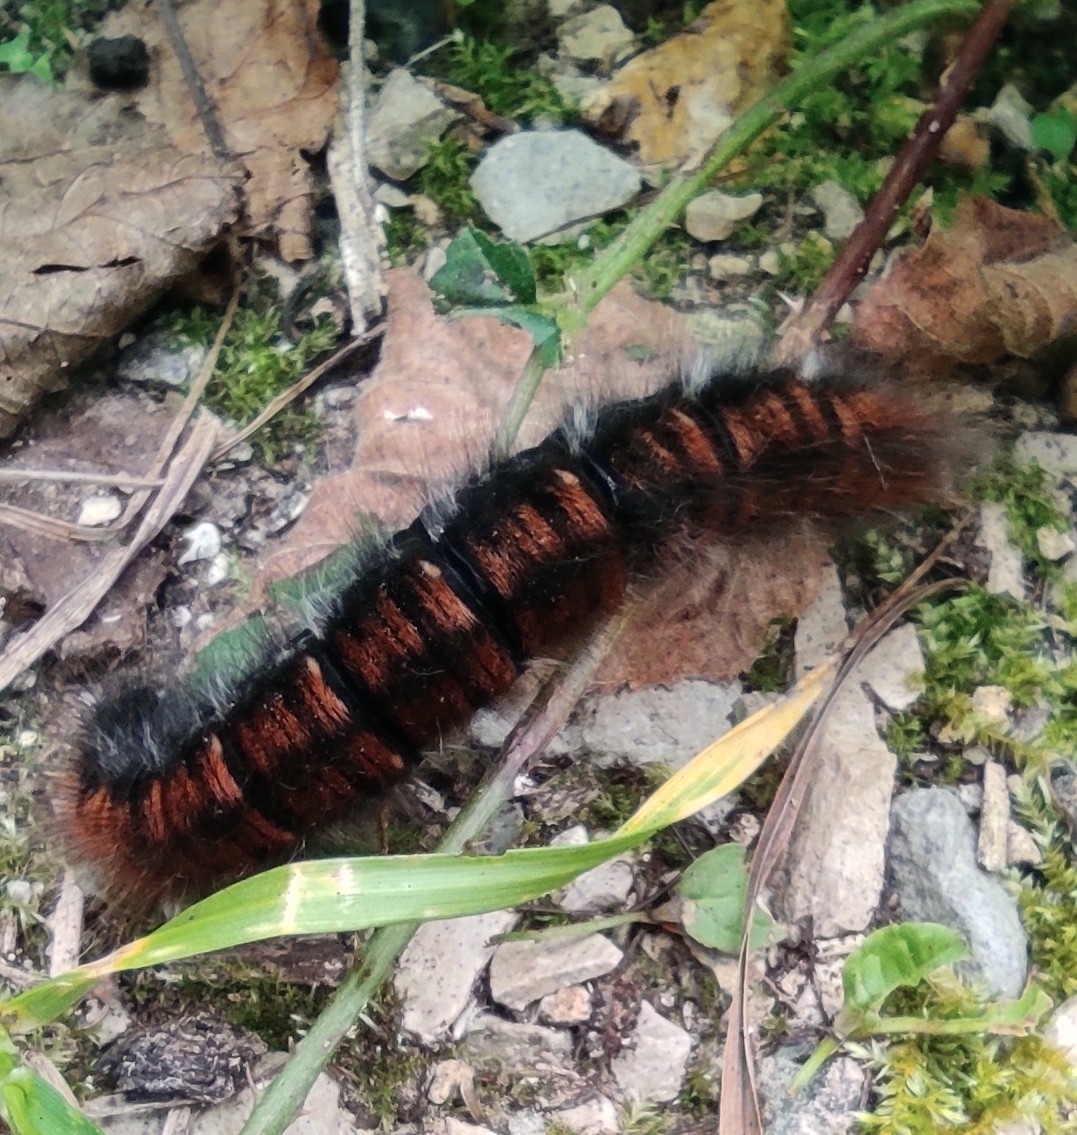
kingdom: Animalia
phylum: Arthropoda
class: Insecta
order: Lepidoptera
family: Lasiocampidae
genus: Macrothylacia
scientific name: Macrothylacia rubi
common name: Fox moth
